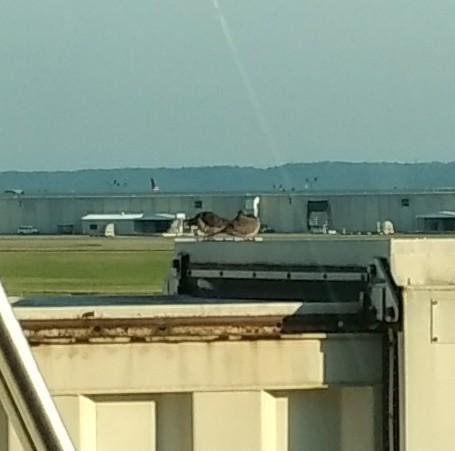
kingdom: Animalia
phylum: Chordata
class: Aves
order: Columbiformes
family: Columbidae
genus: Zenaida
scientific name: Zenaida macroura
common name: Mourning dove
